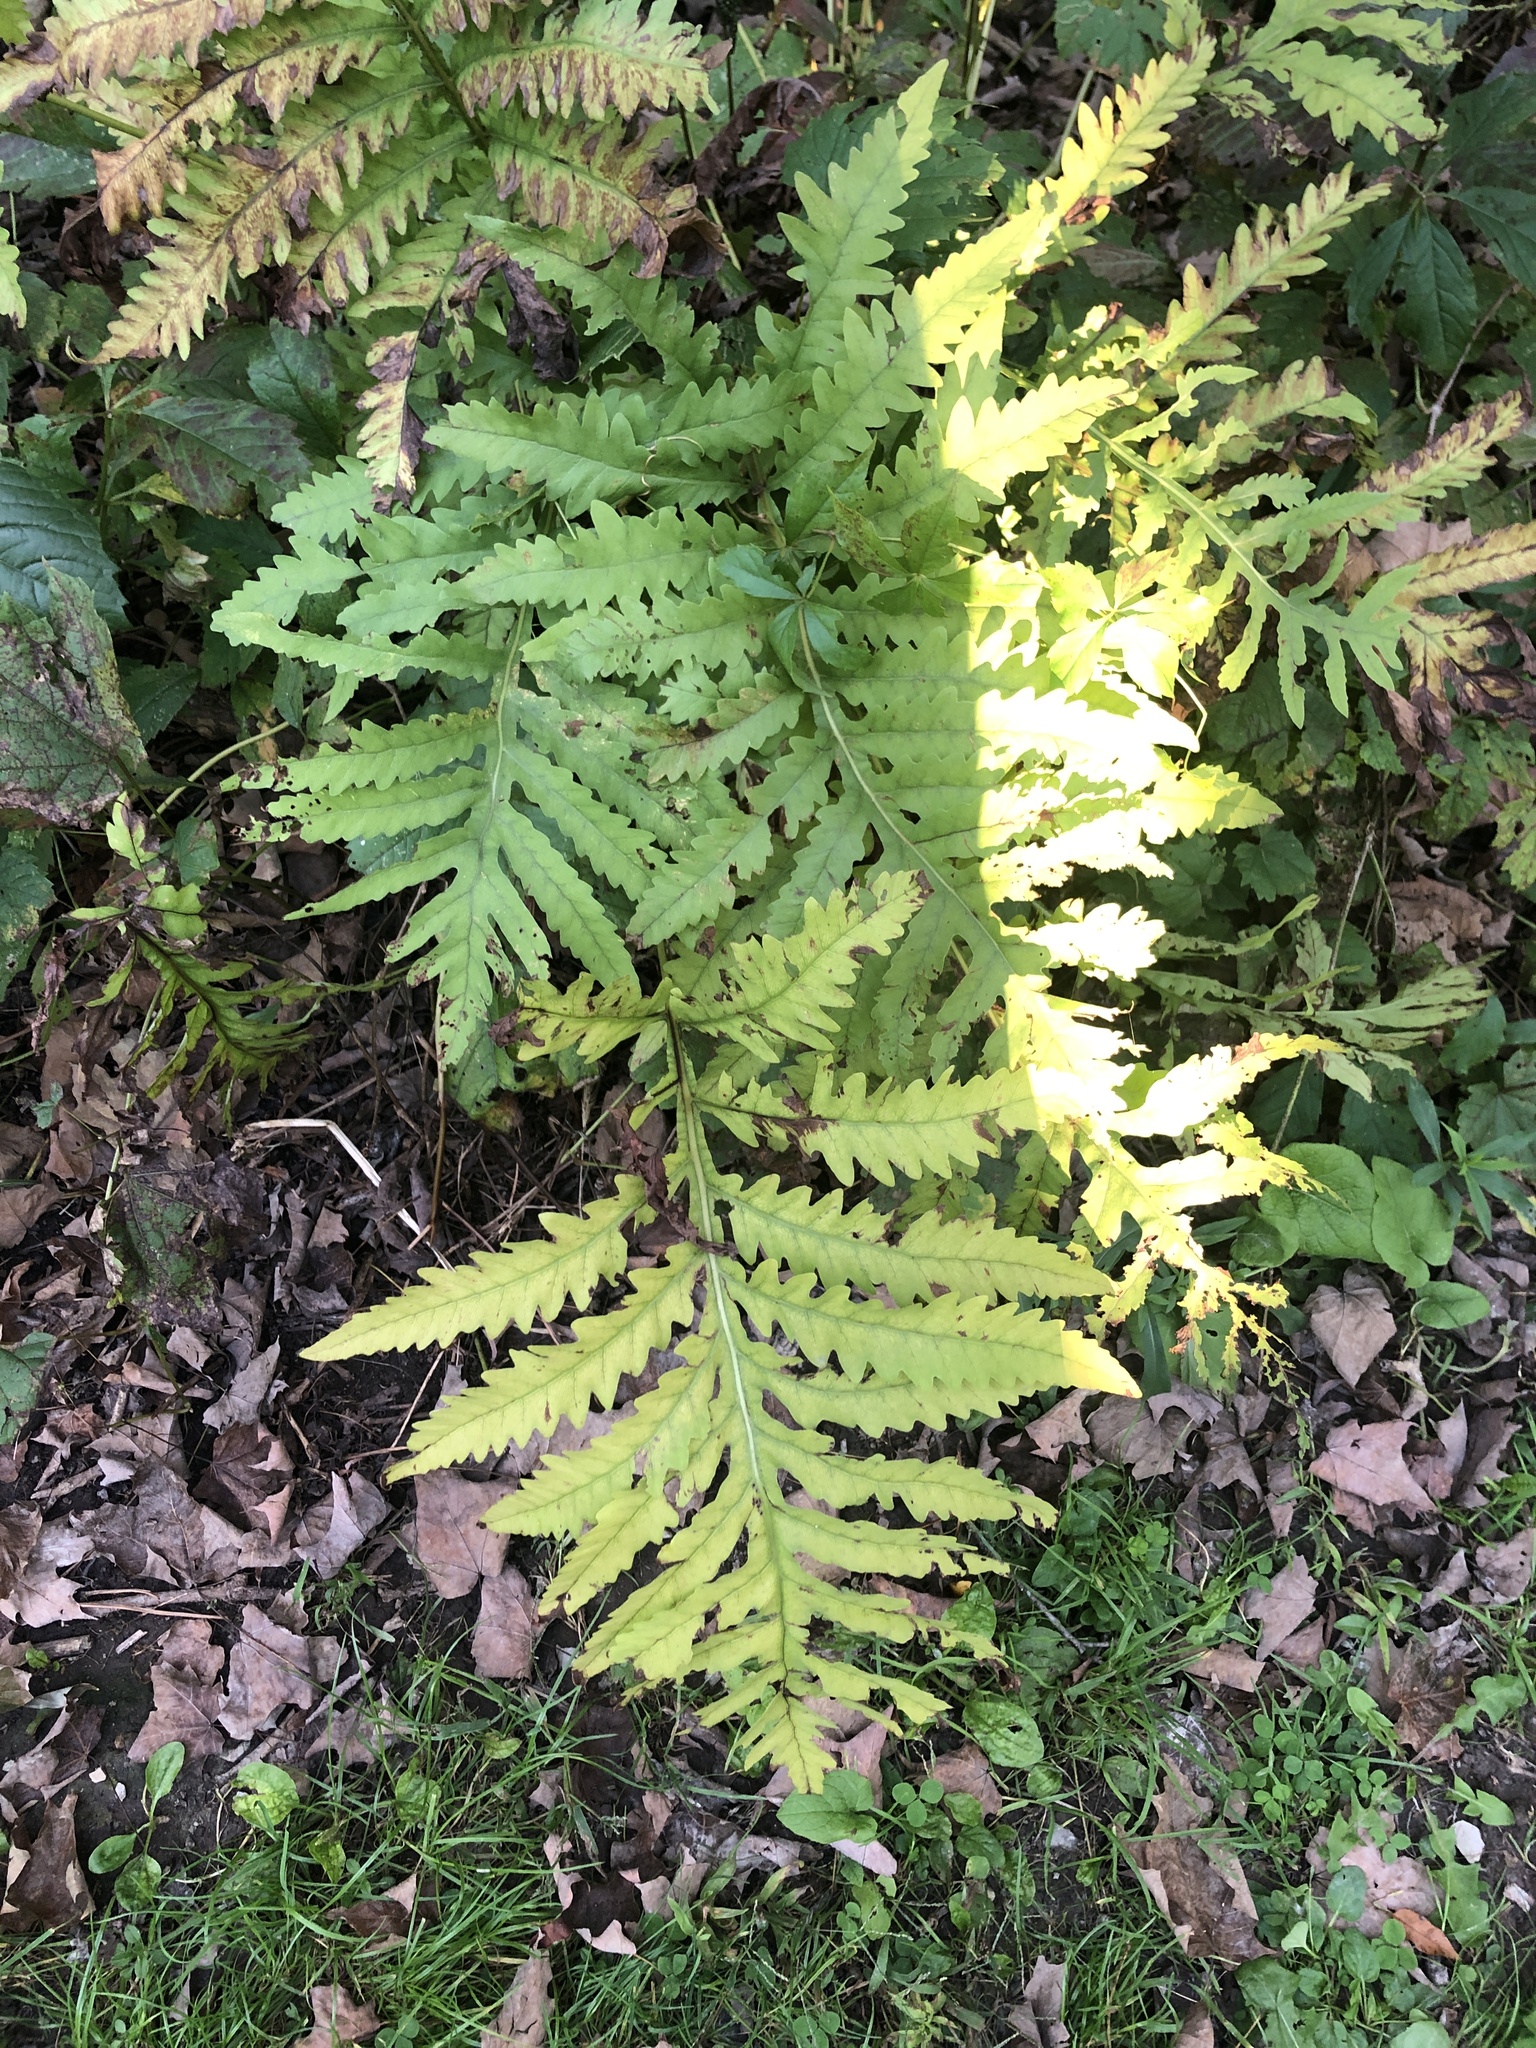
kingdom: Plantae
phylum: Tracheophyta
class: Polypodiopsida
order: Polypodiales
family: Onocleaceae
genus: Onoclea
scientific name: Onoclea sensibilis
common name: Sensitive fern
